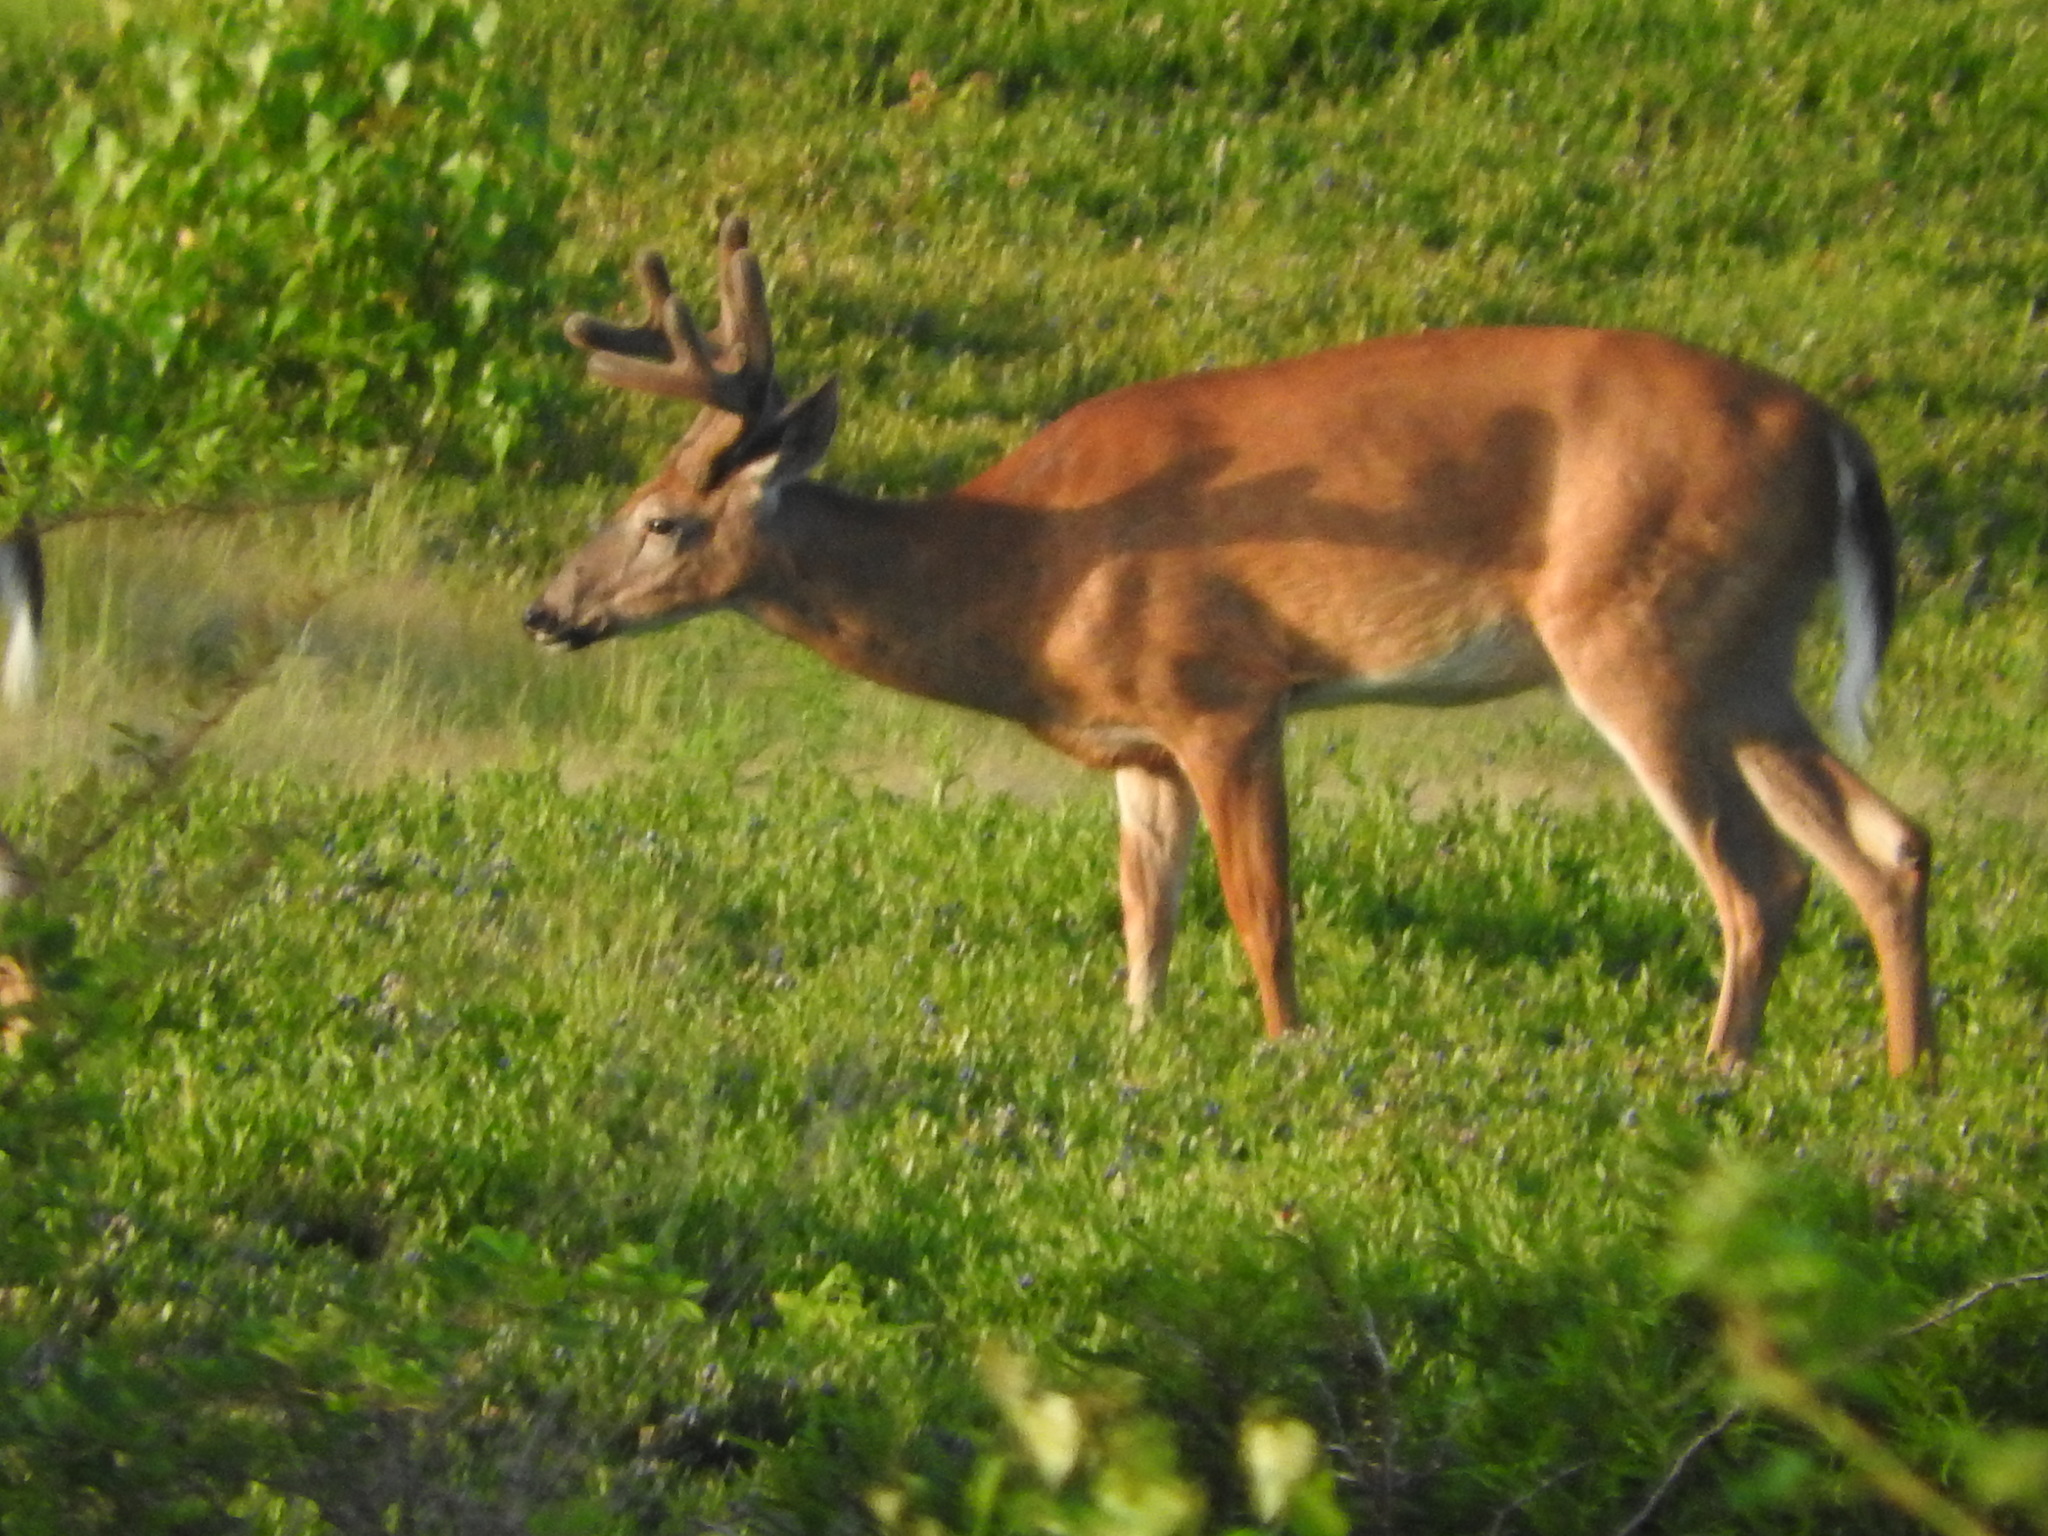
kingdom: Animalia
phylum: Chordata
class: Mammalia
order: Artiodactyla
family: Cervidae
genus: Odocoileus
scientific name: Odocoileus virginianus
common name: White-tailed deer
